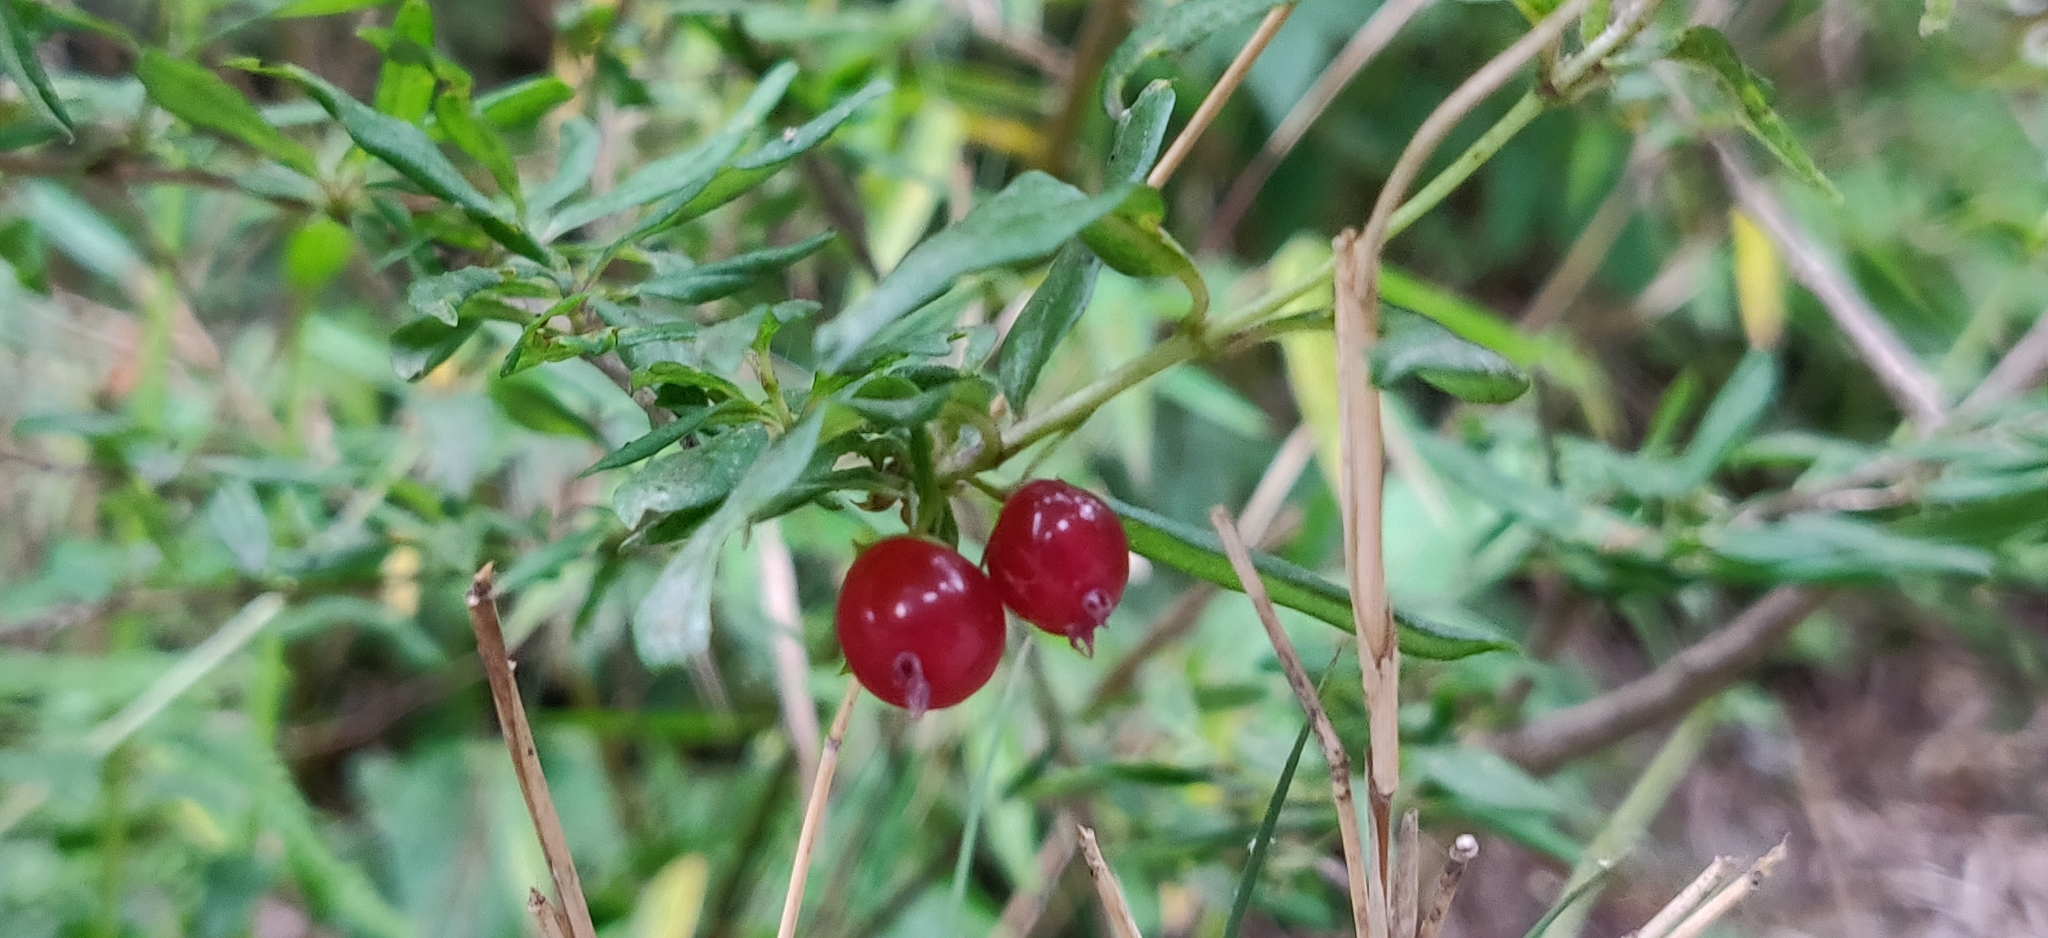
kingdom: Plantae
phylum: Tracheophyta
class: Magnoliopsida
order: Dipsacales
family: Caprifoliaceae
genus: Lonicera
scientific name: Lonicera angustifolia
